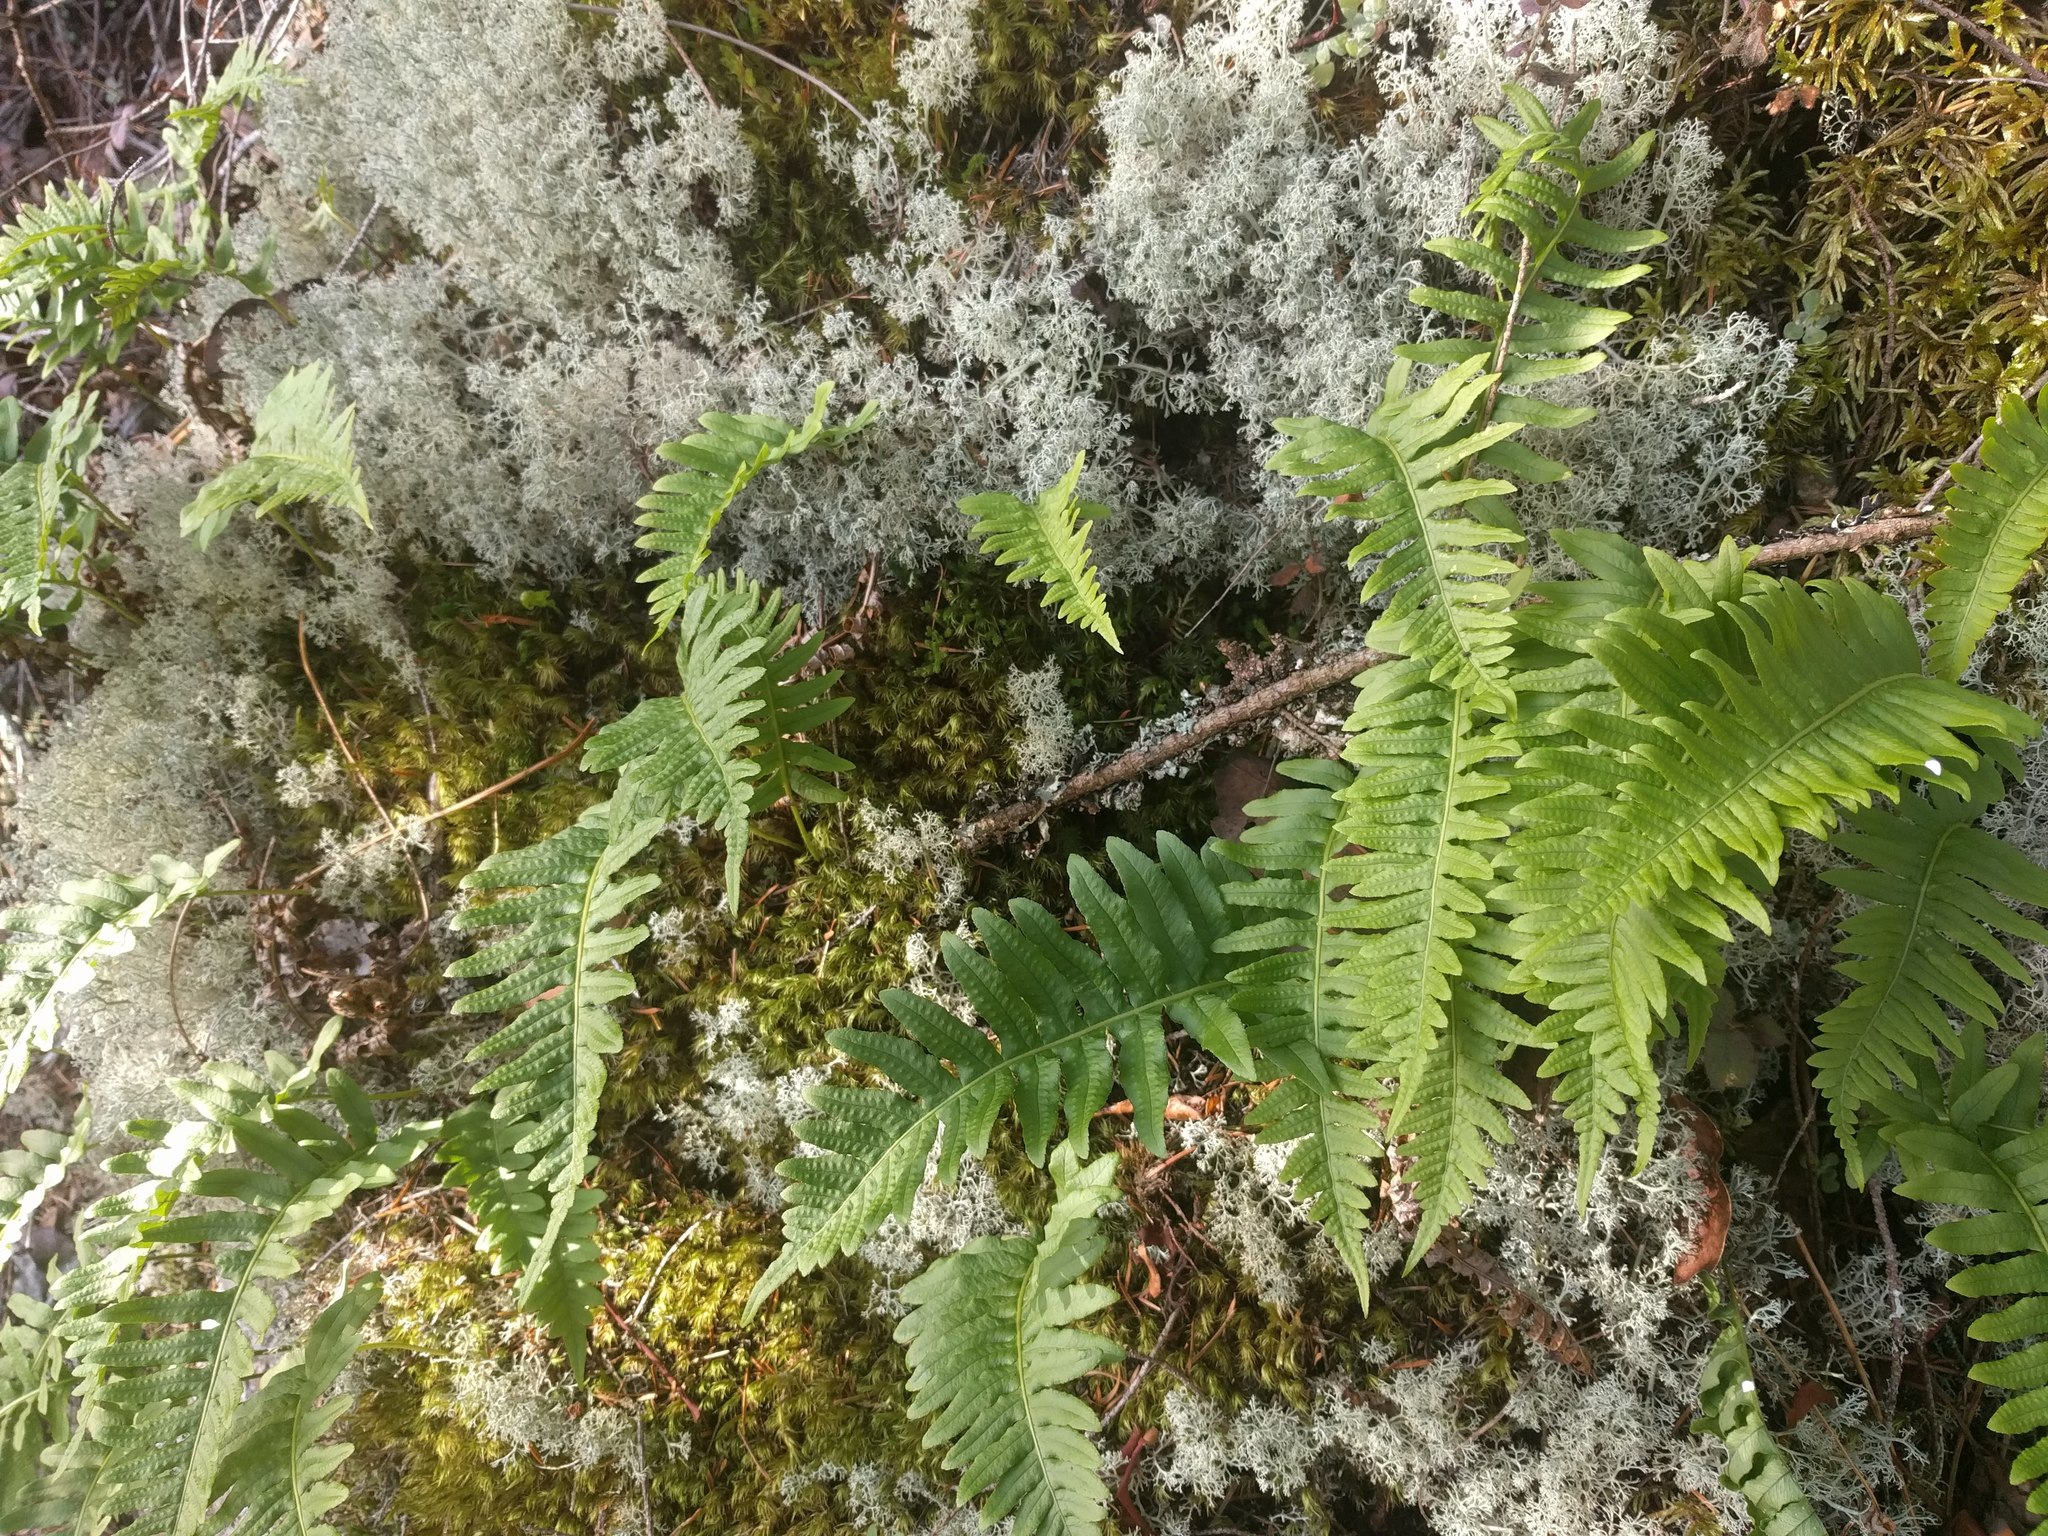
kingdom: Plantae
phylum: Tracheophyta
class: Polypodiopsida
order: Polypodiales
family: Polypodiaceae
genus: Polypodium
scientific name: Polypodium glycyrrhiza
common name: Licorice fern
